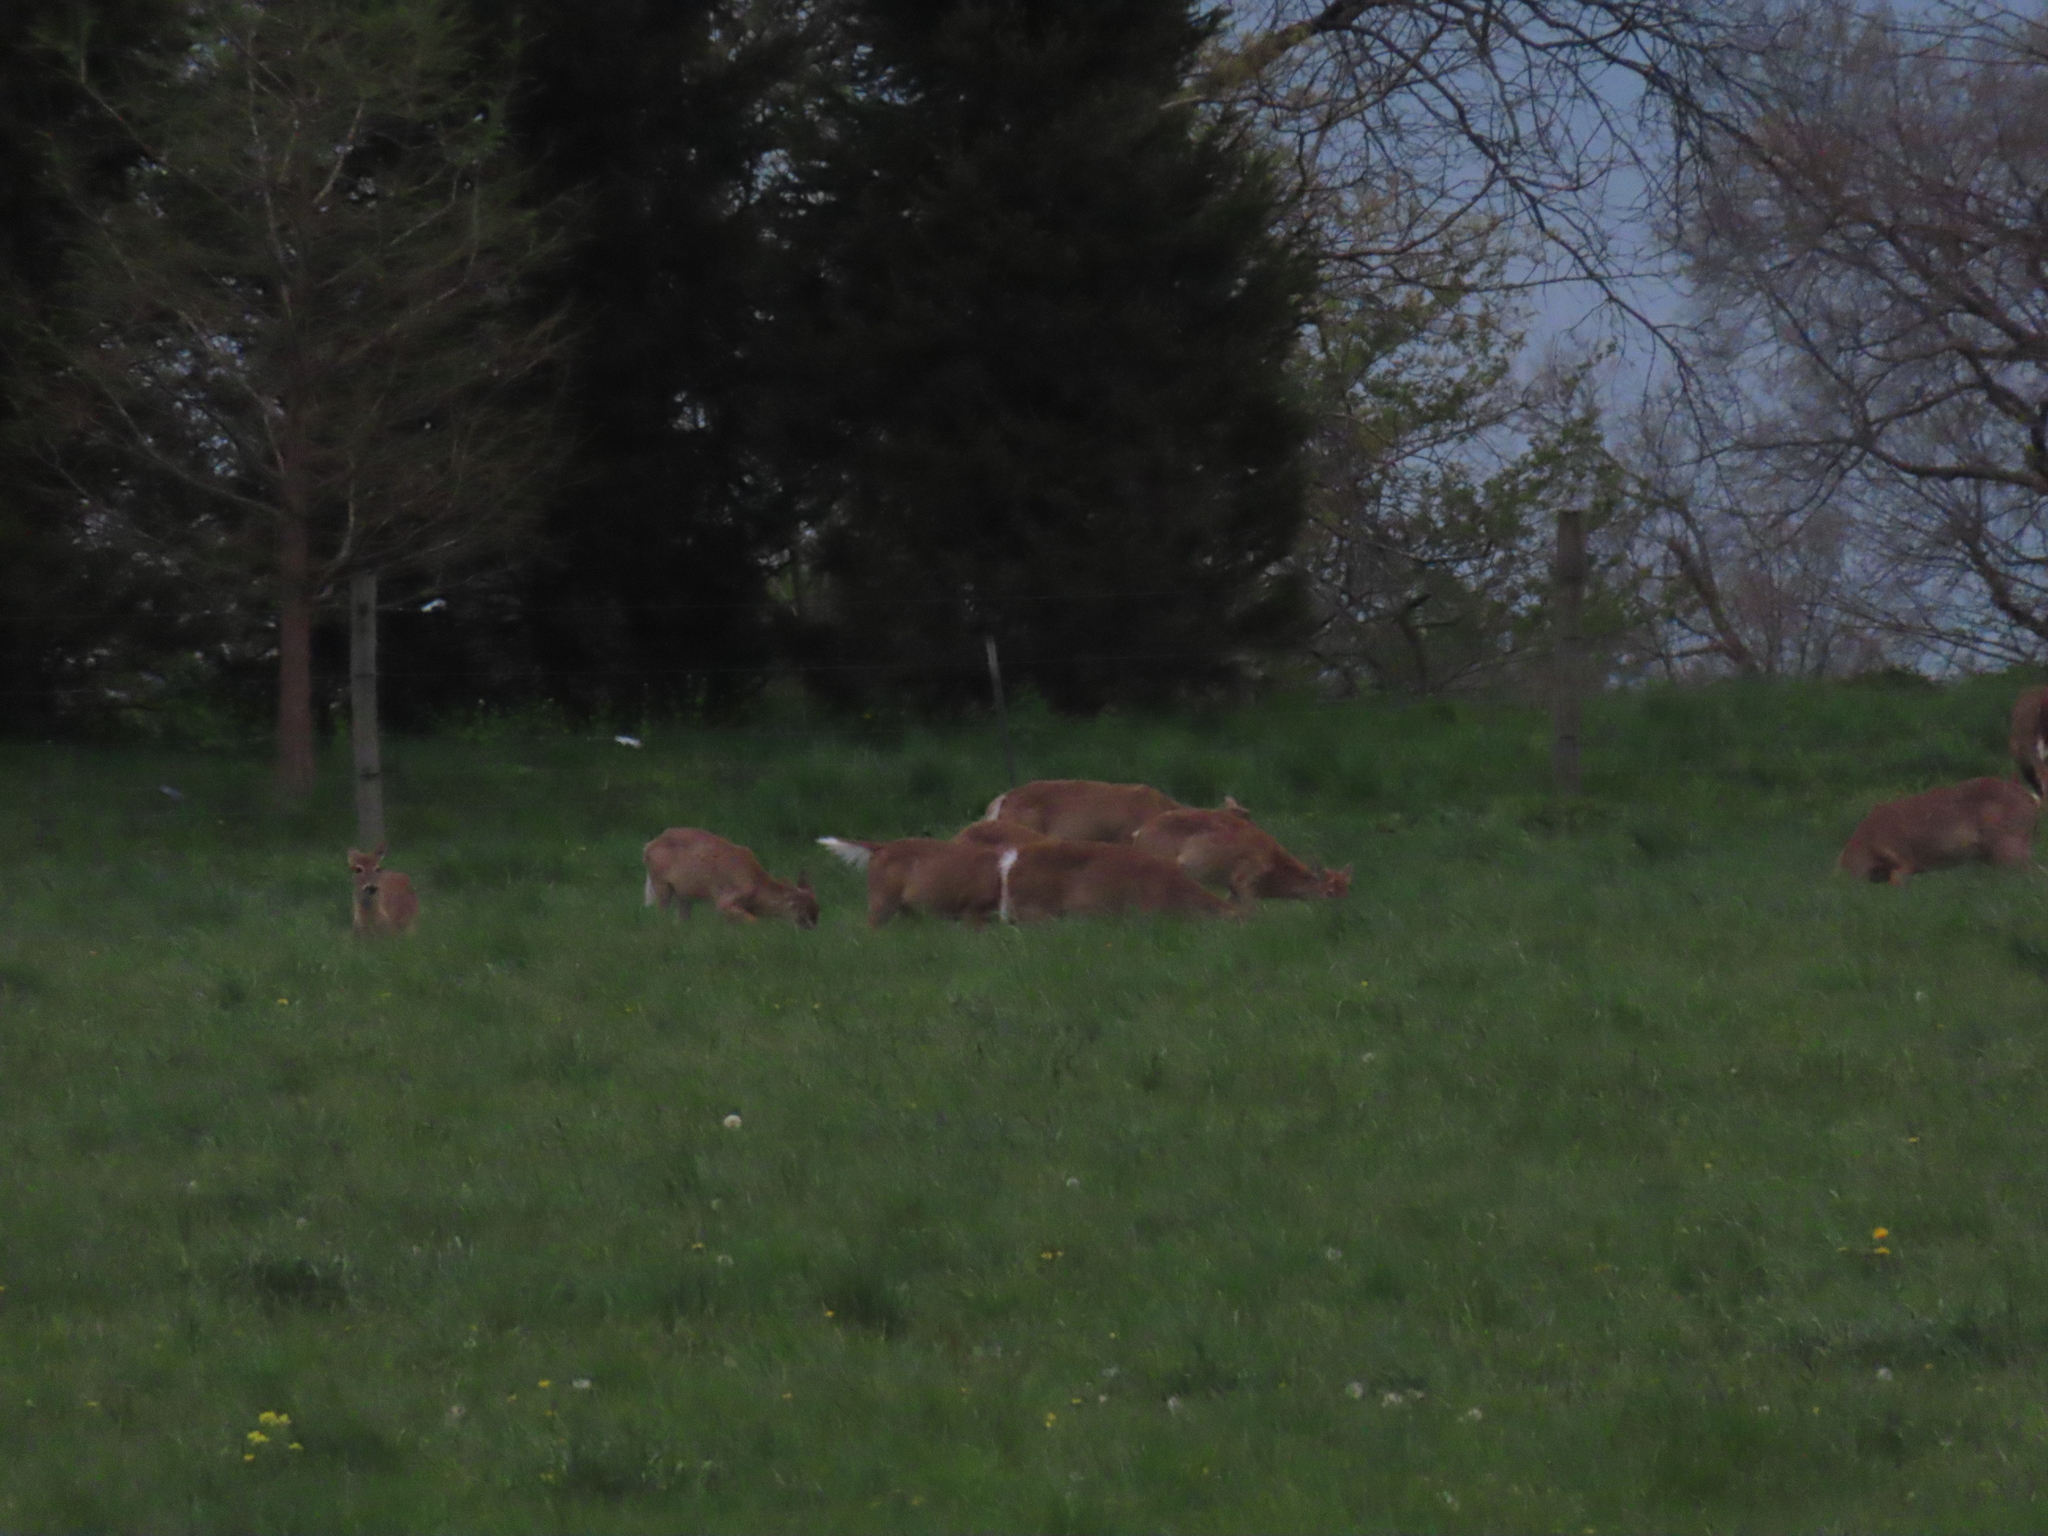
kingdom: Animalia
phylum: Chordata
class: Mammalia
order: Artiodactyla
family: Cervidae
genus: Odocoileus
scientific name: Odocoileus virginianus
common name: White-tailed deer
